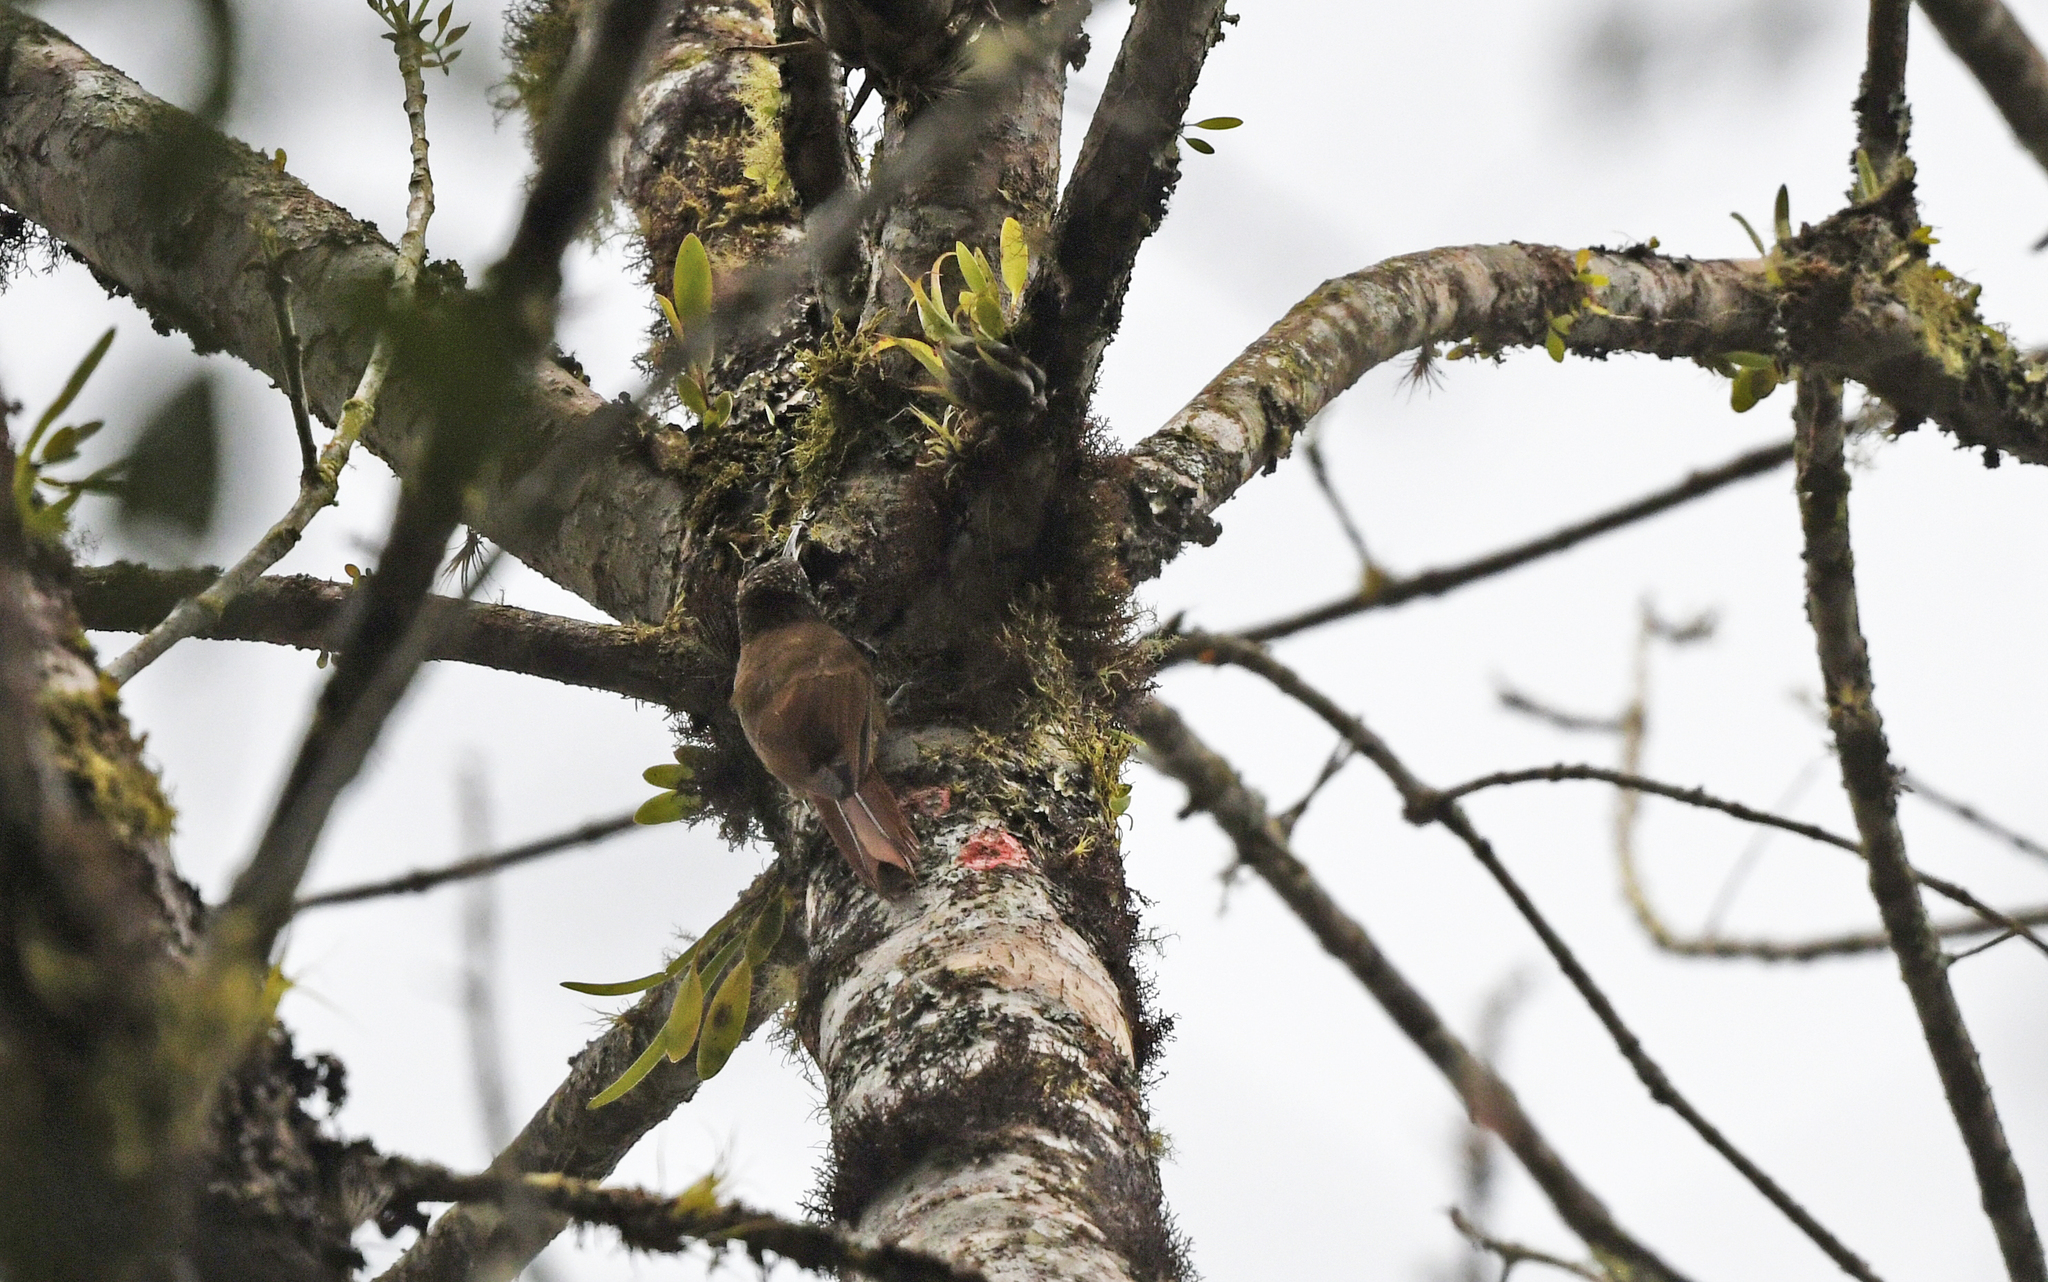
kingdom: Animalia
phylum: Chordata
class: Aves
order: Passeriformes
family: Furnariidae
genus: Lepidocolaptes
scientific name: Lepidocolaptes lacrymiger
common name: Montane woodcreeper
